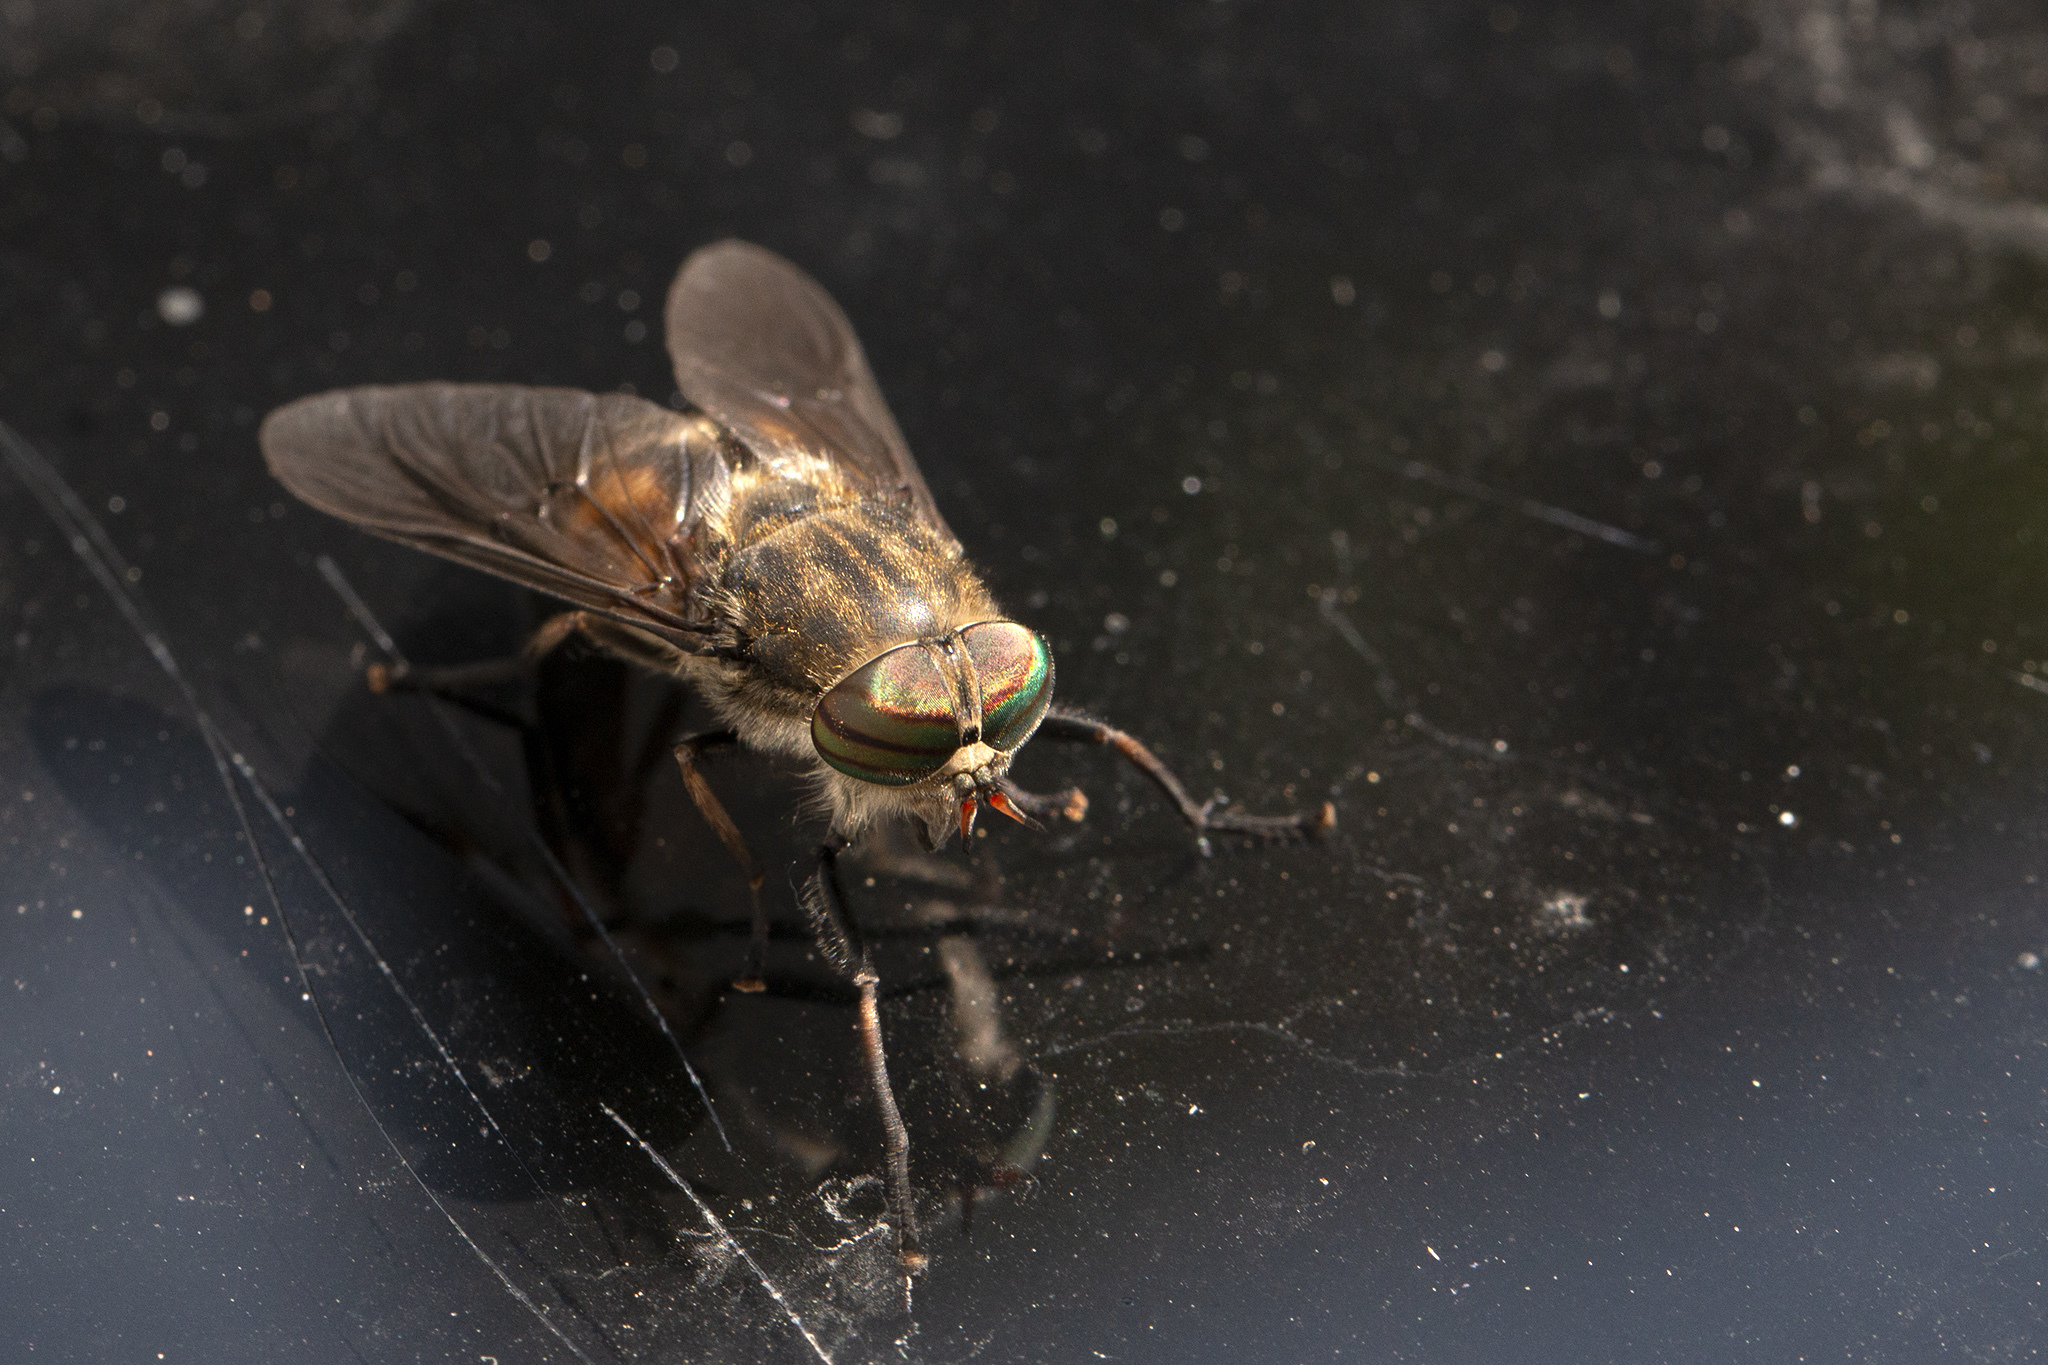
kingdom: Animalia
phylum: Arthropoda
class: Insecta
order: Diptera
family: Tabanidae
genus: Hybomitra
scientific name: Hybomitra bimaculata
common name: Hairy-legged horsefly
